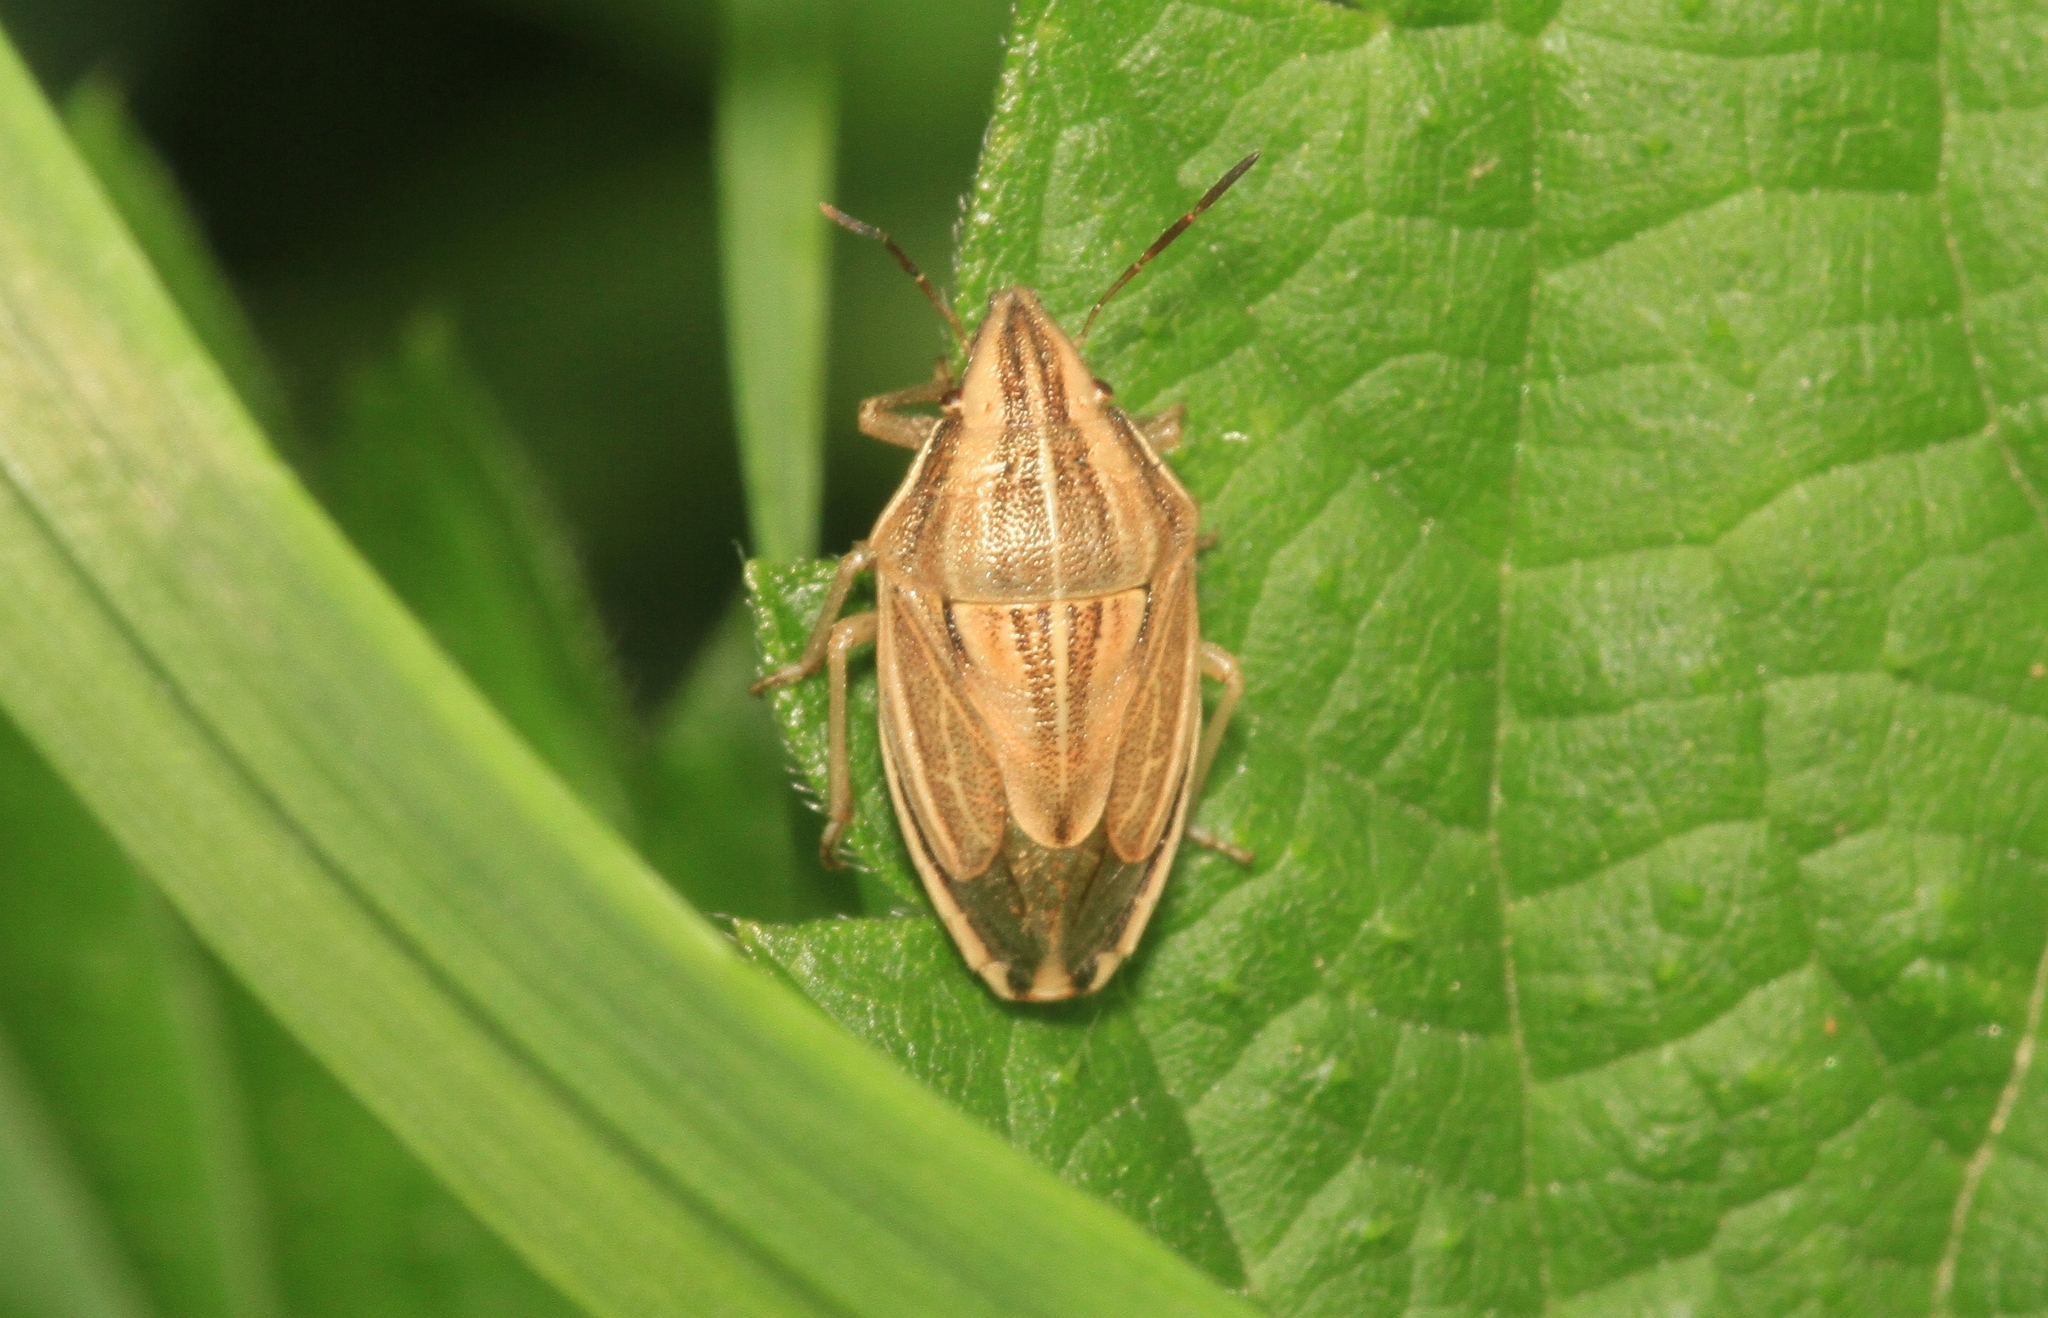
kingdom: Animalia
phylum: Arthropoda
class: Insecta
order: Hemiptera
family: Pentatomidae
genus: Aelia
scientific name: Aelia acuminata
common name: Bishop's mitre
